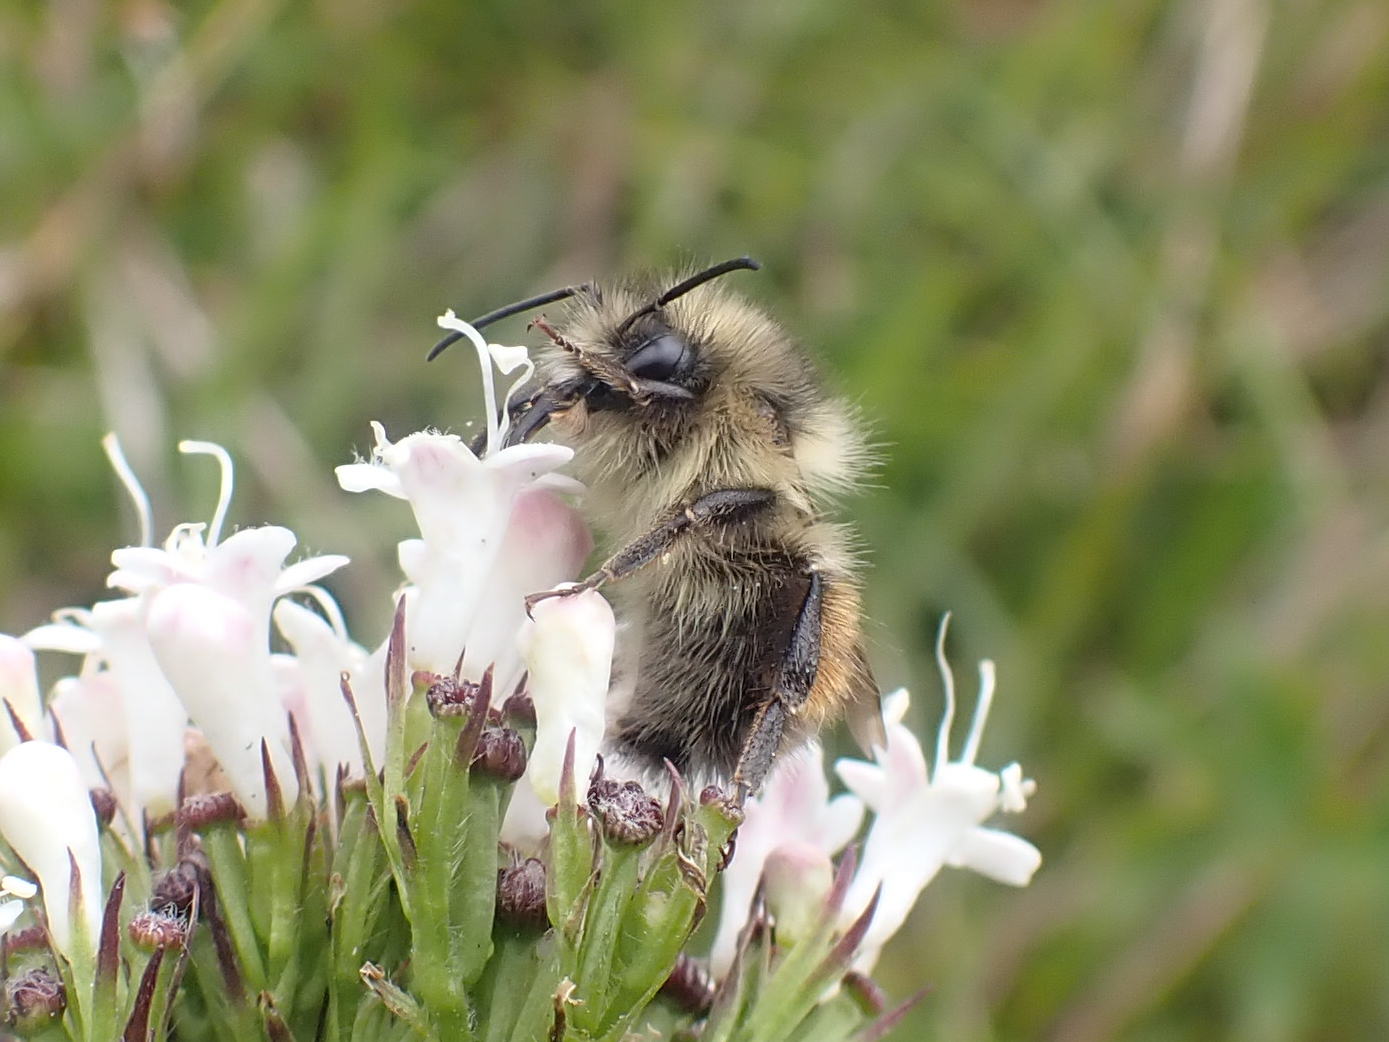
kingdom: Animalia
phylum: Arthropoda
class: Insecta
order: Hymenoptera
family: Apidae
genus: Bombus
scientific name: Bombus melanopygus
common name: Black tail bumble bee
